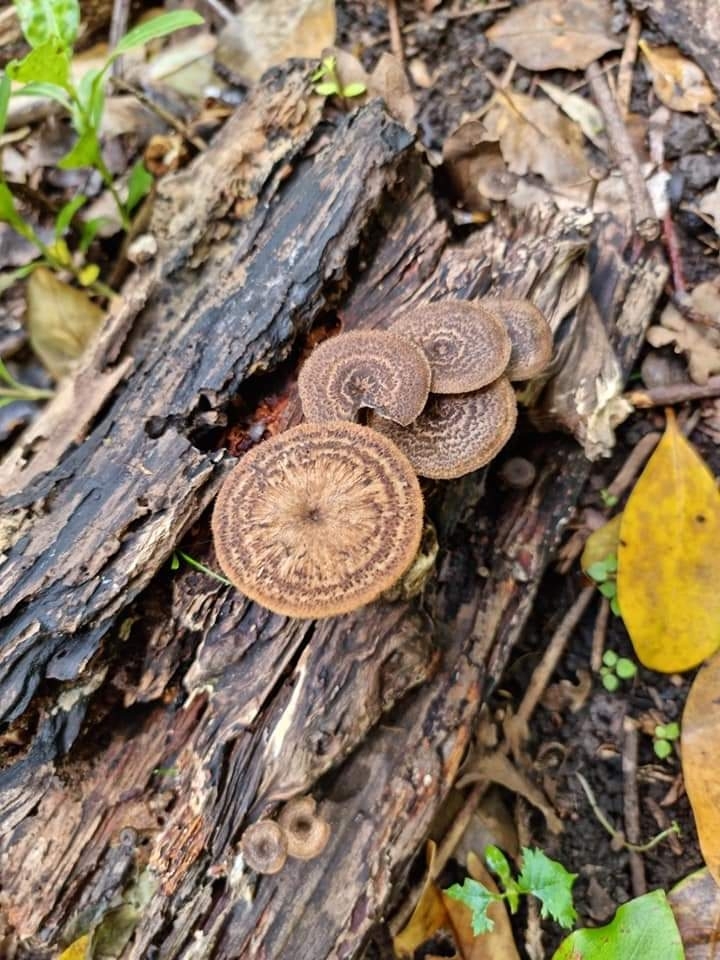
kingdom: Fungi
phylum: Basidiomycota
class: Agaricomycetes
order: Polyporales
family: Polyporaceae
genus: Lentinus
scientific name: Lentinus arcularius
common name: Spring polypore
